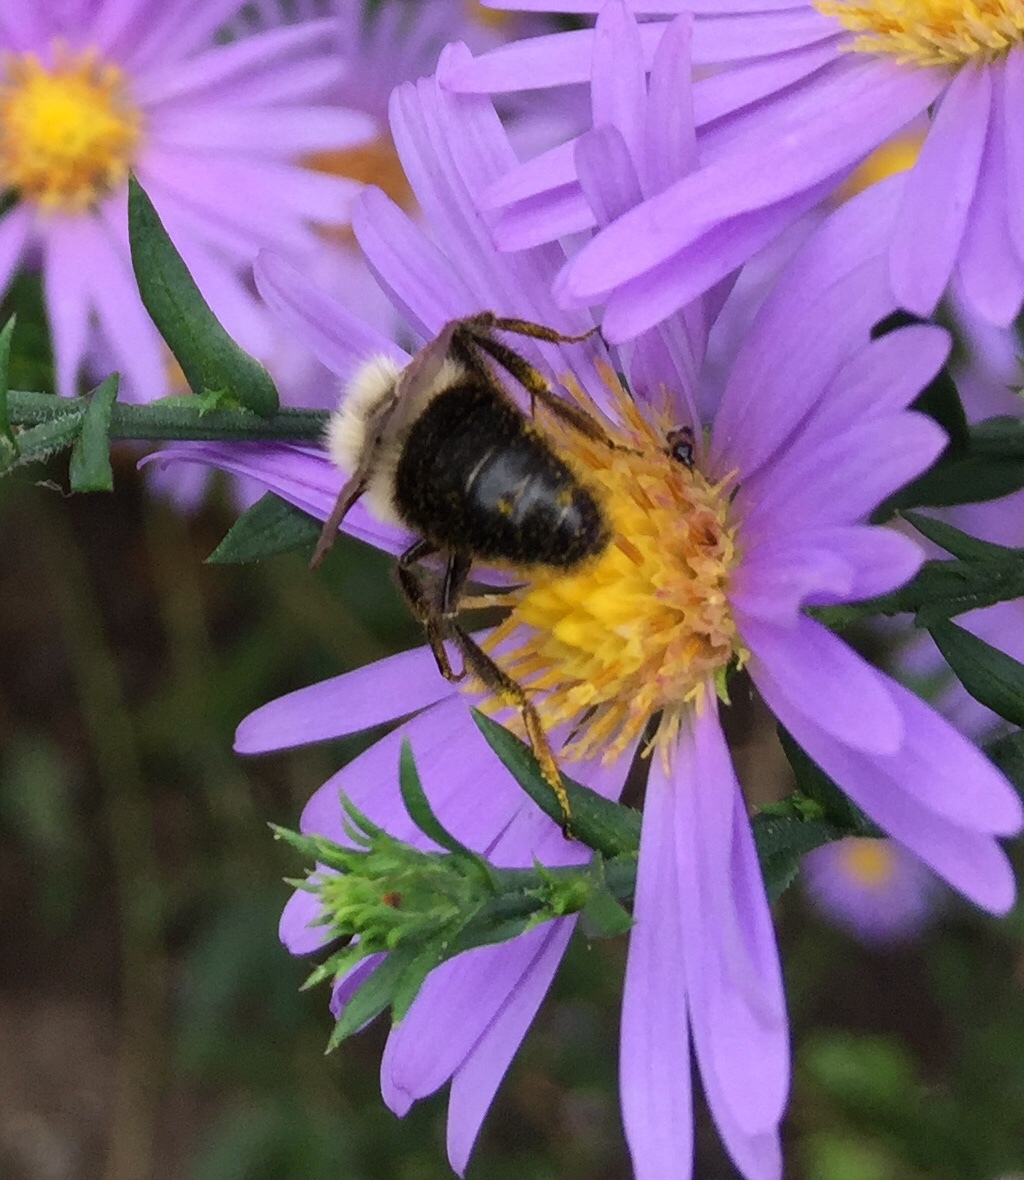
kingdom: Animalia
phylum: Arthropoda
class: Insecta
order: Hymenoptera
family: Apidae
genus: Bombus
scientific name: Bombus impatiens
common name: Common eastern bumble bee
